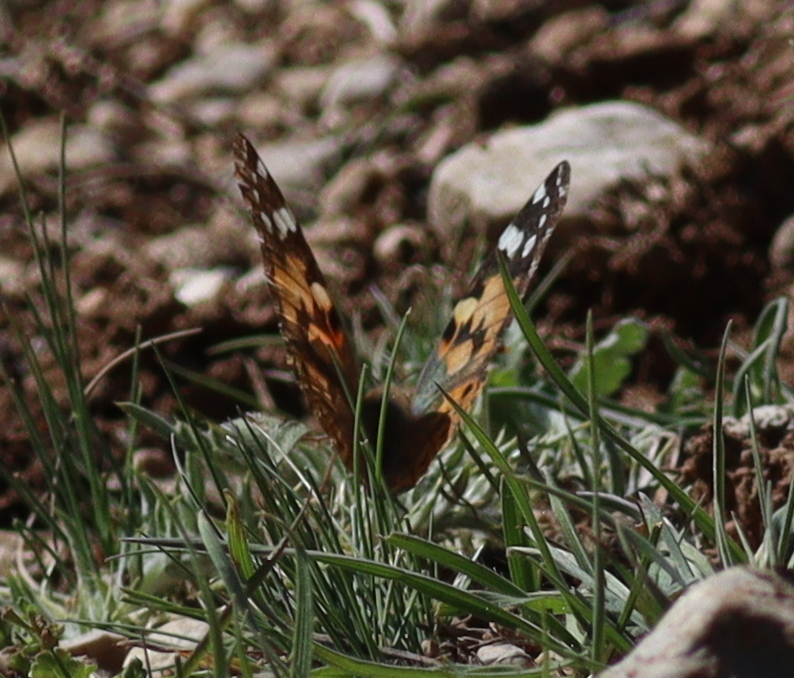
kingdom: Animalia
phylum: Arthropoda
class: Insecta
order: Lepidoptera
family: Nymphalidae
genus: Vanessa
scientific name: Vanessa cardui
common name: Painted lady
